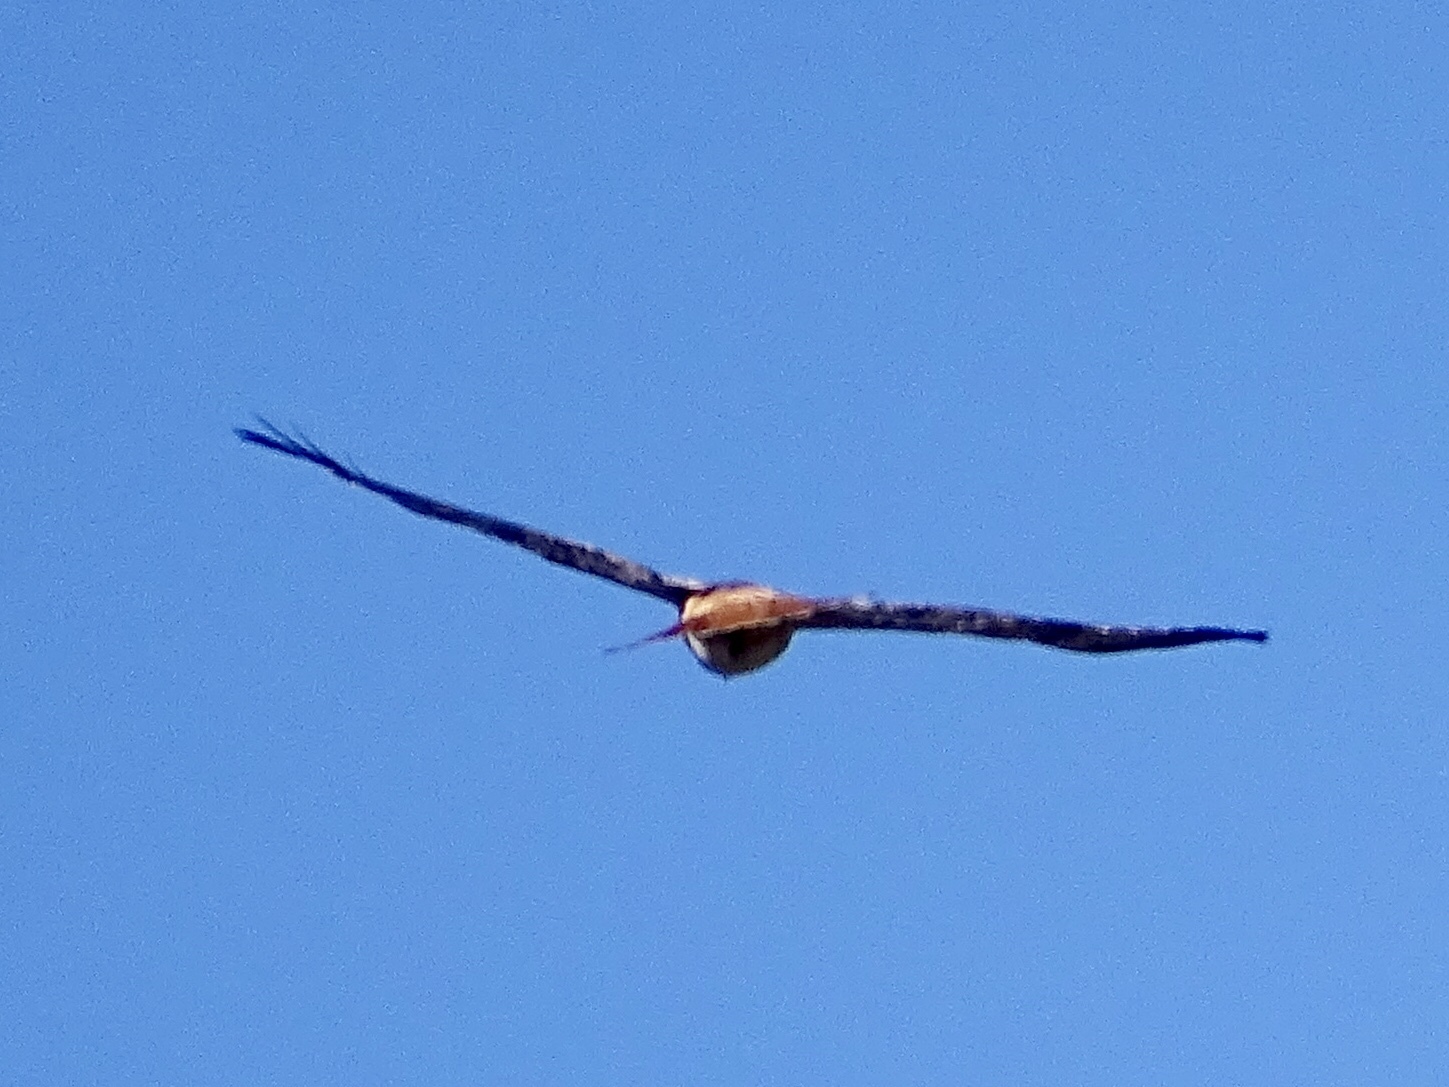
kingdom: Animalia
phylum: Chordata
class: Aves
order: Accipitriformes
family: Accipitridae
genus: Buteo
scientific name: Buteo jamaicensis
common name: Red-tailed hawk
